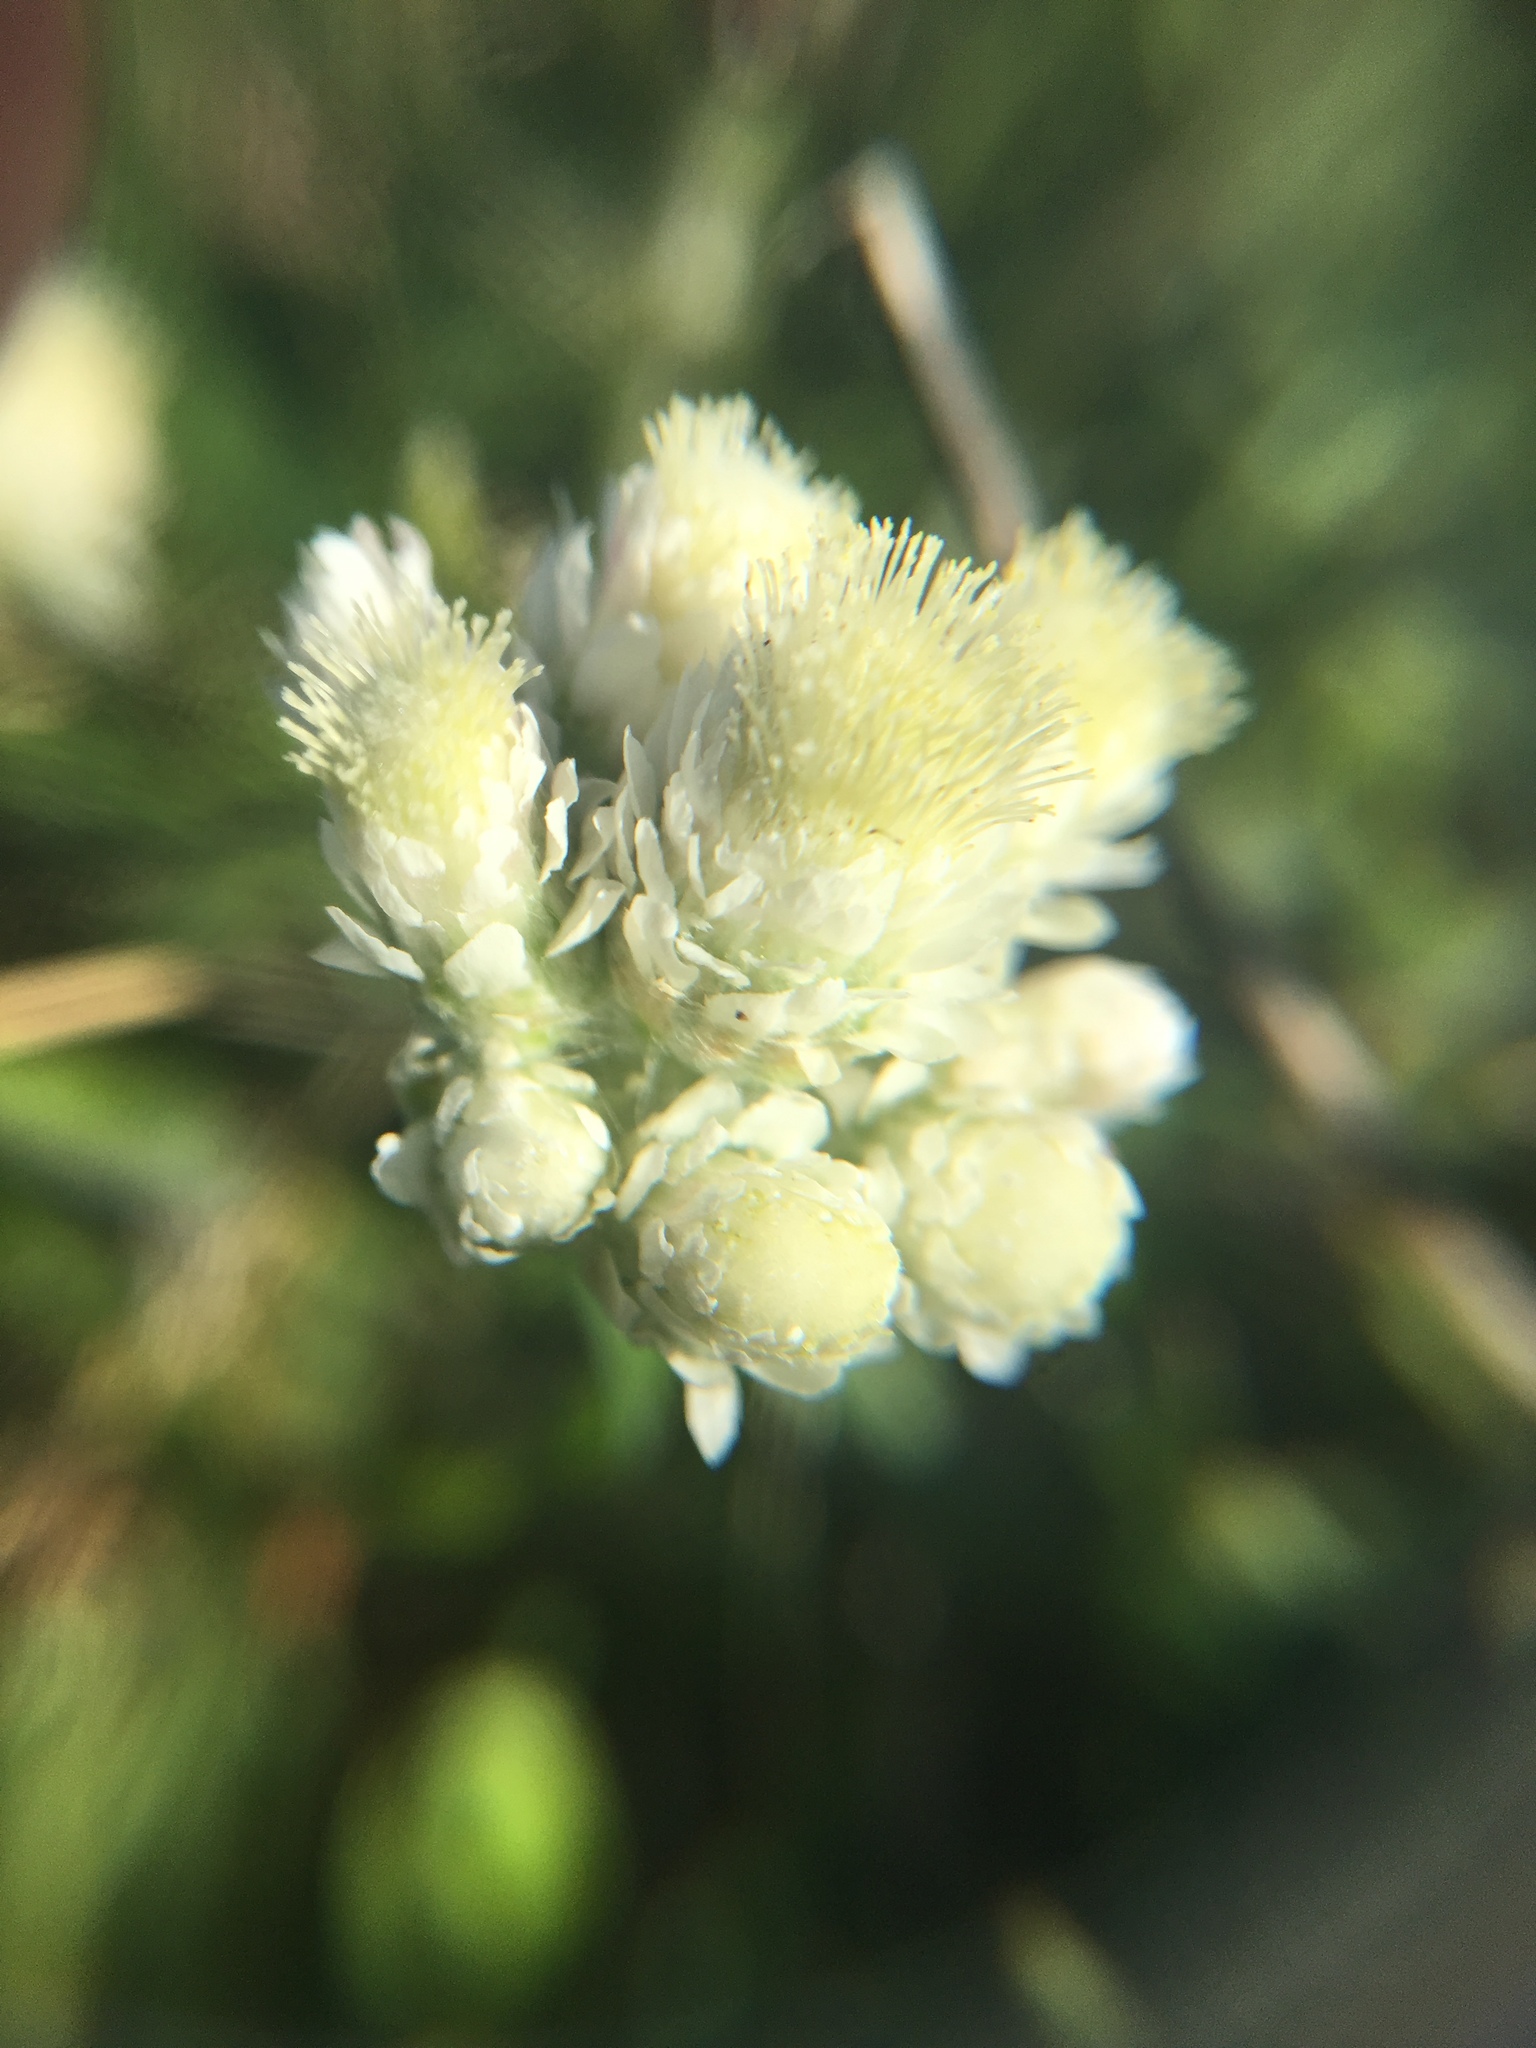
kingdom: Plantae
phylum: Tracheophyta
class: Magnoliopsida
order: Asterales
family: Asteraceae
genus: Antennaria
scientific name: Antennaria dioica
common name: Mountain everlasting
